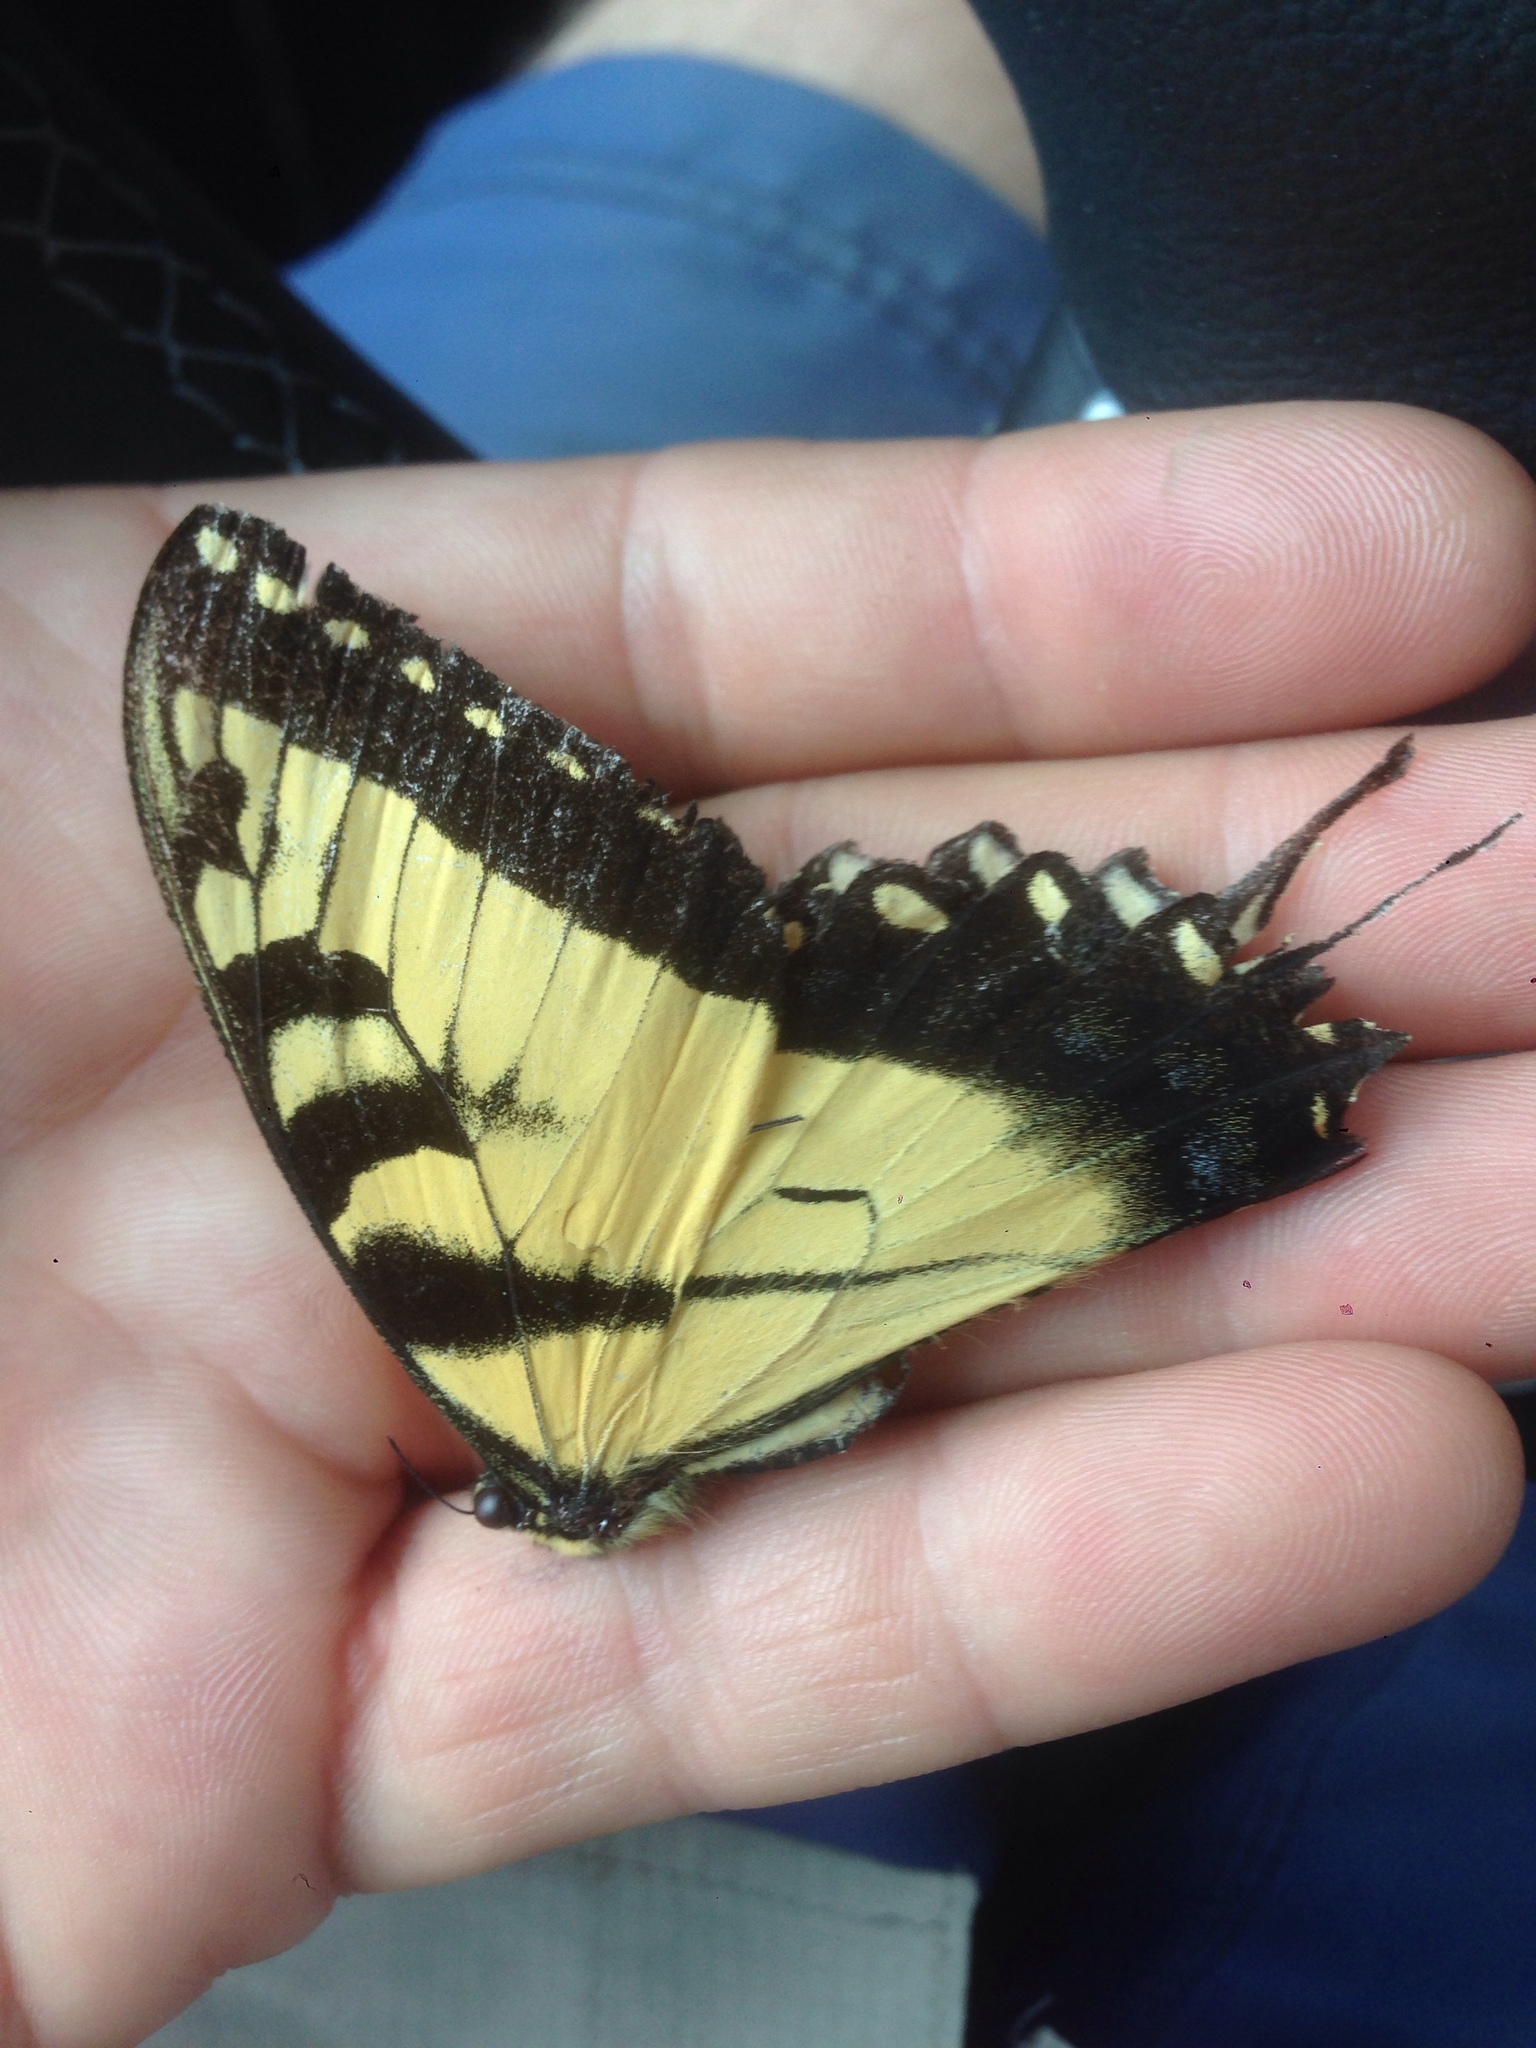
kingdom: Animalia
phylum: Arthropoda
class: Insecta
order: Lepidoptera
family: Papilionidae
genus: Papilio
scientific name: Papilio glaucus
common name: Tiger swallowtail
